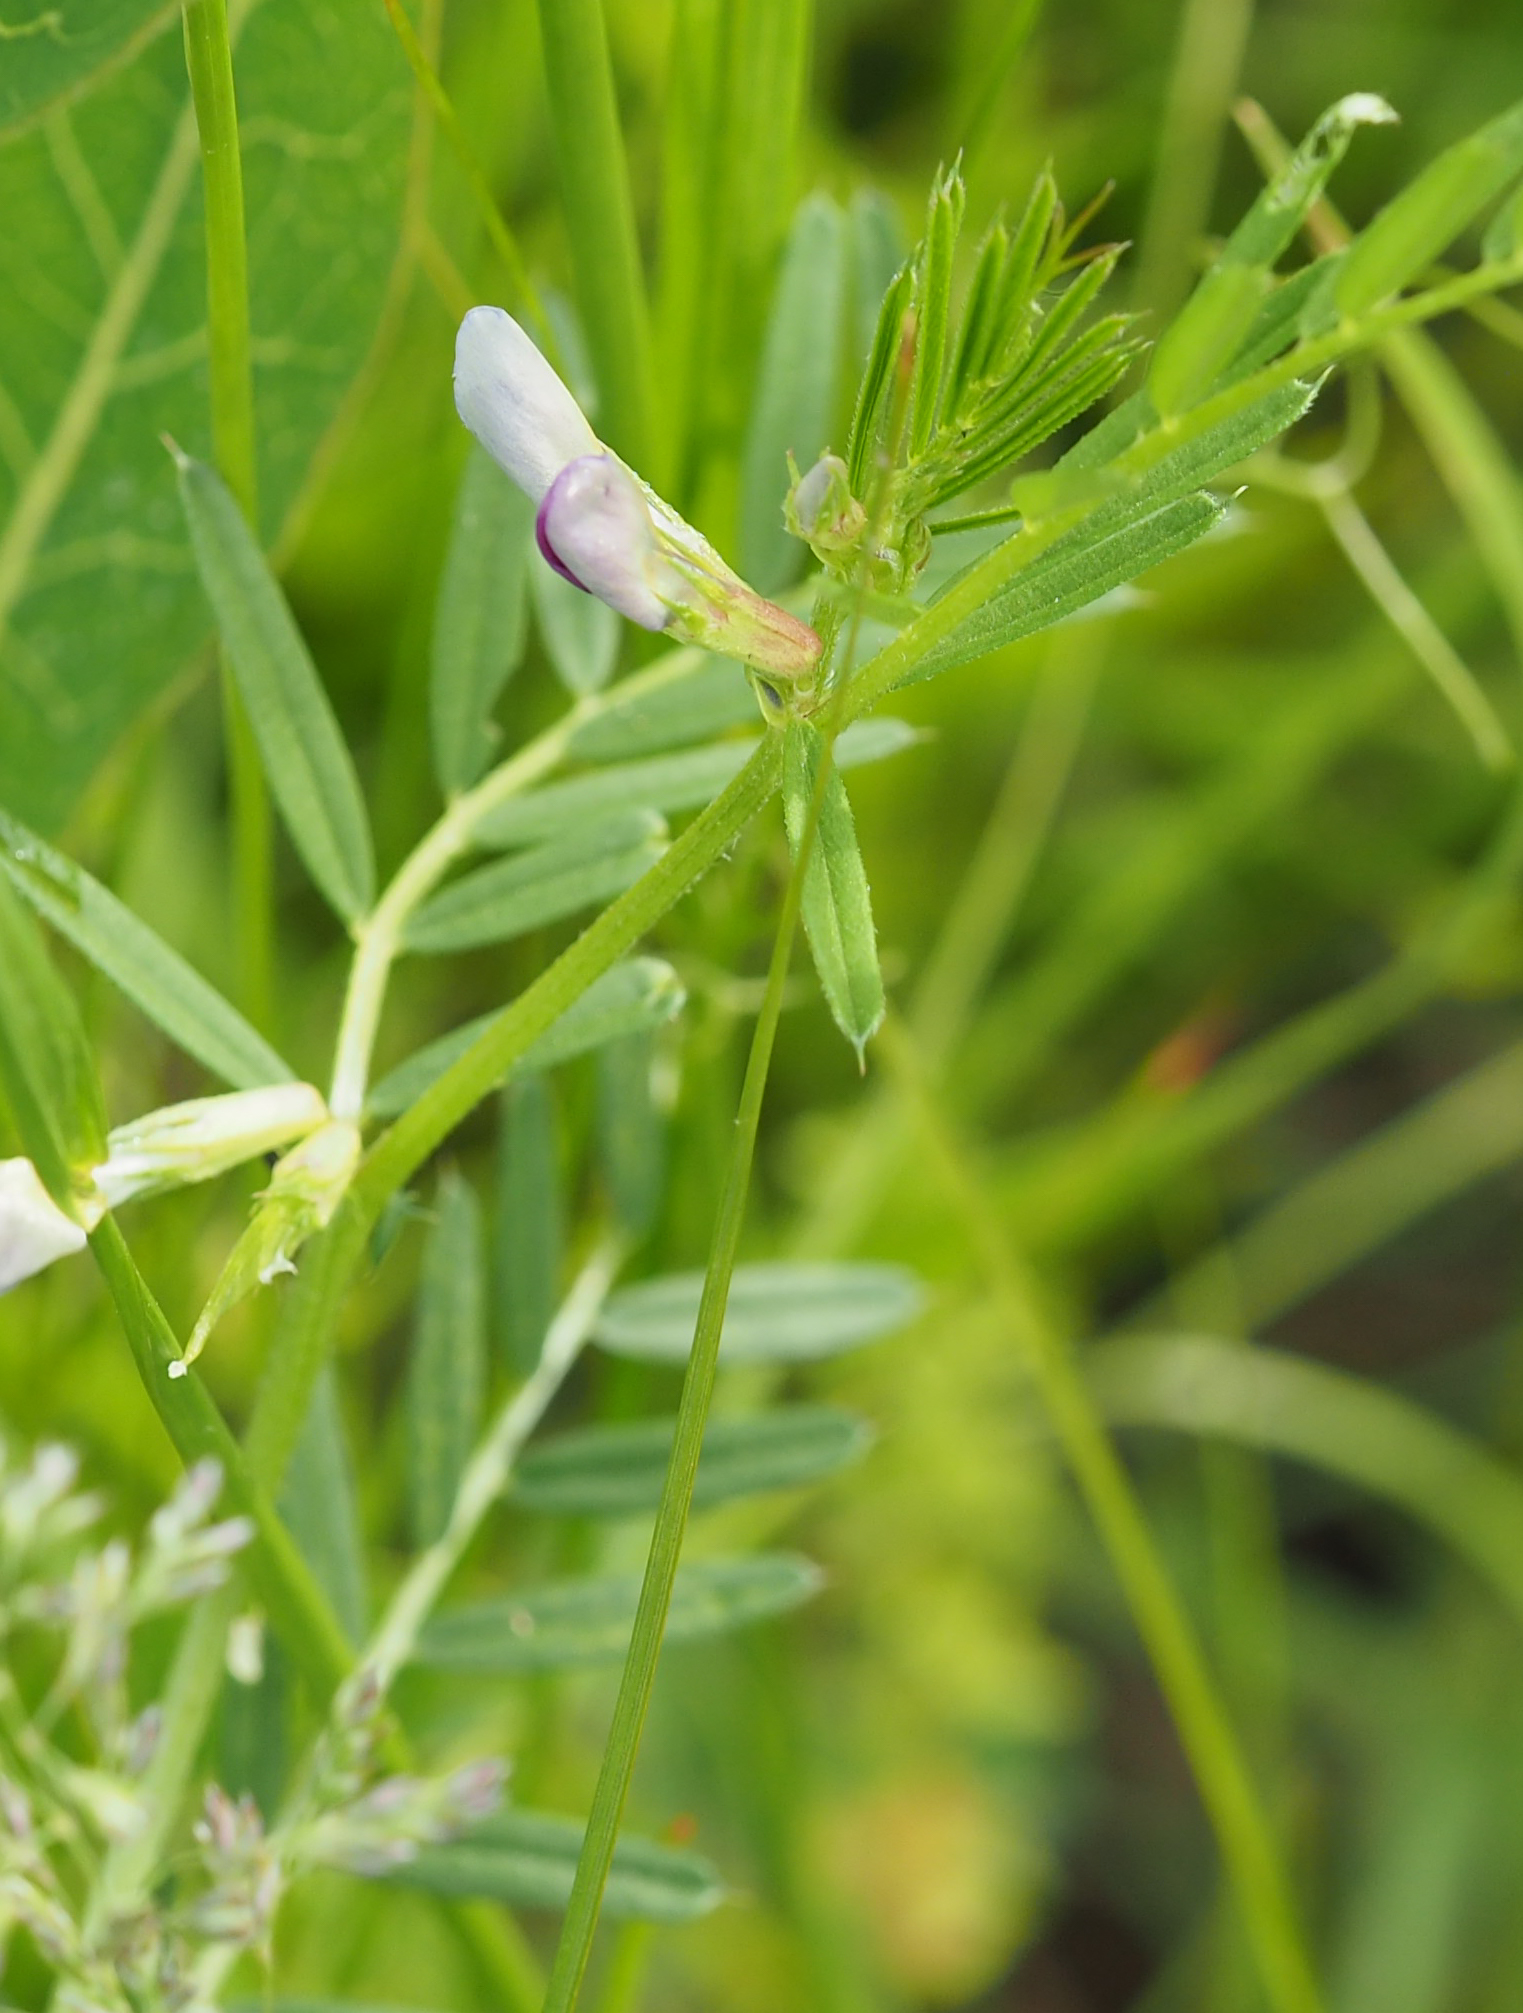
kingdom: Plantae
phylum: Tracheophyta
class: Magnoliopsida
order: Fabales
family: Fabaceae
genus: Vicia
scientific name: Vicia sativa
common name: Garden vetch
